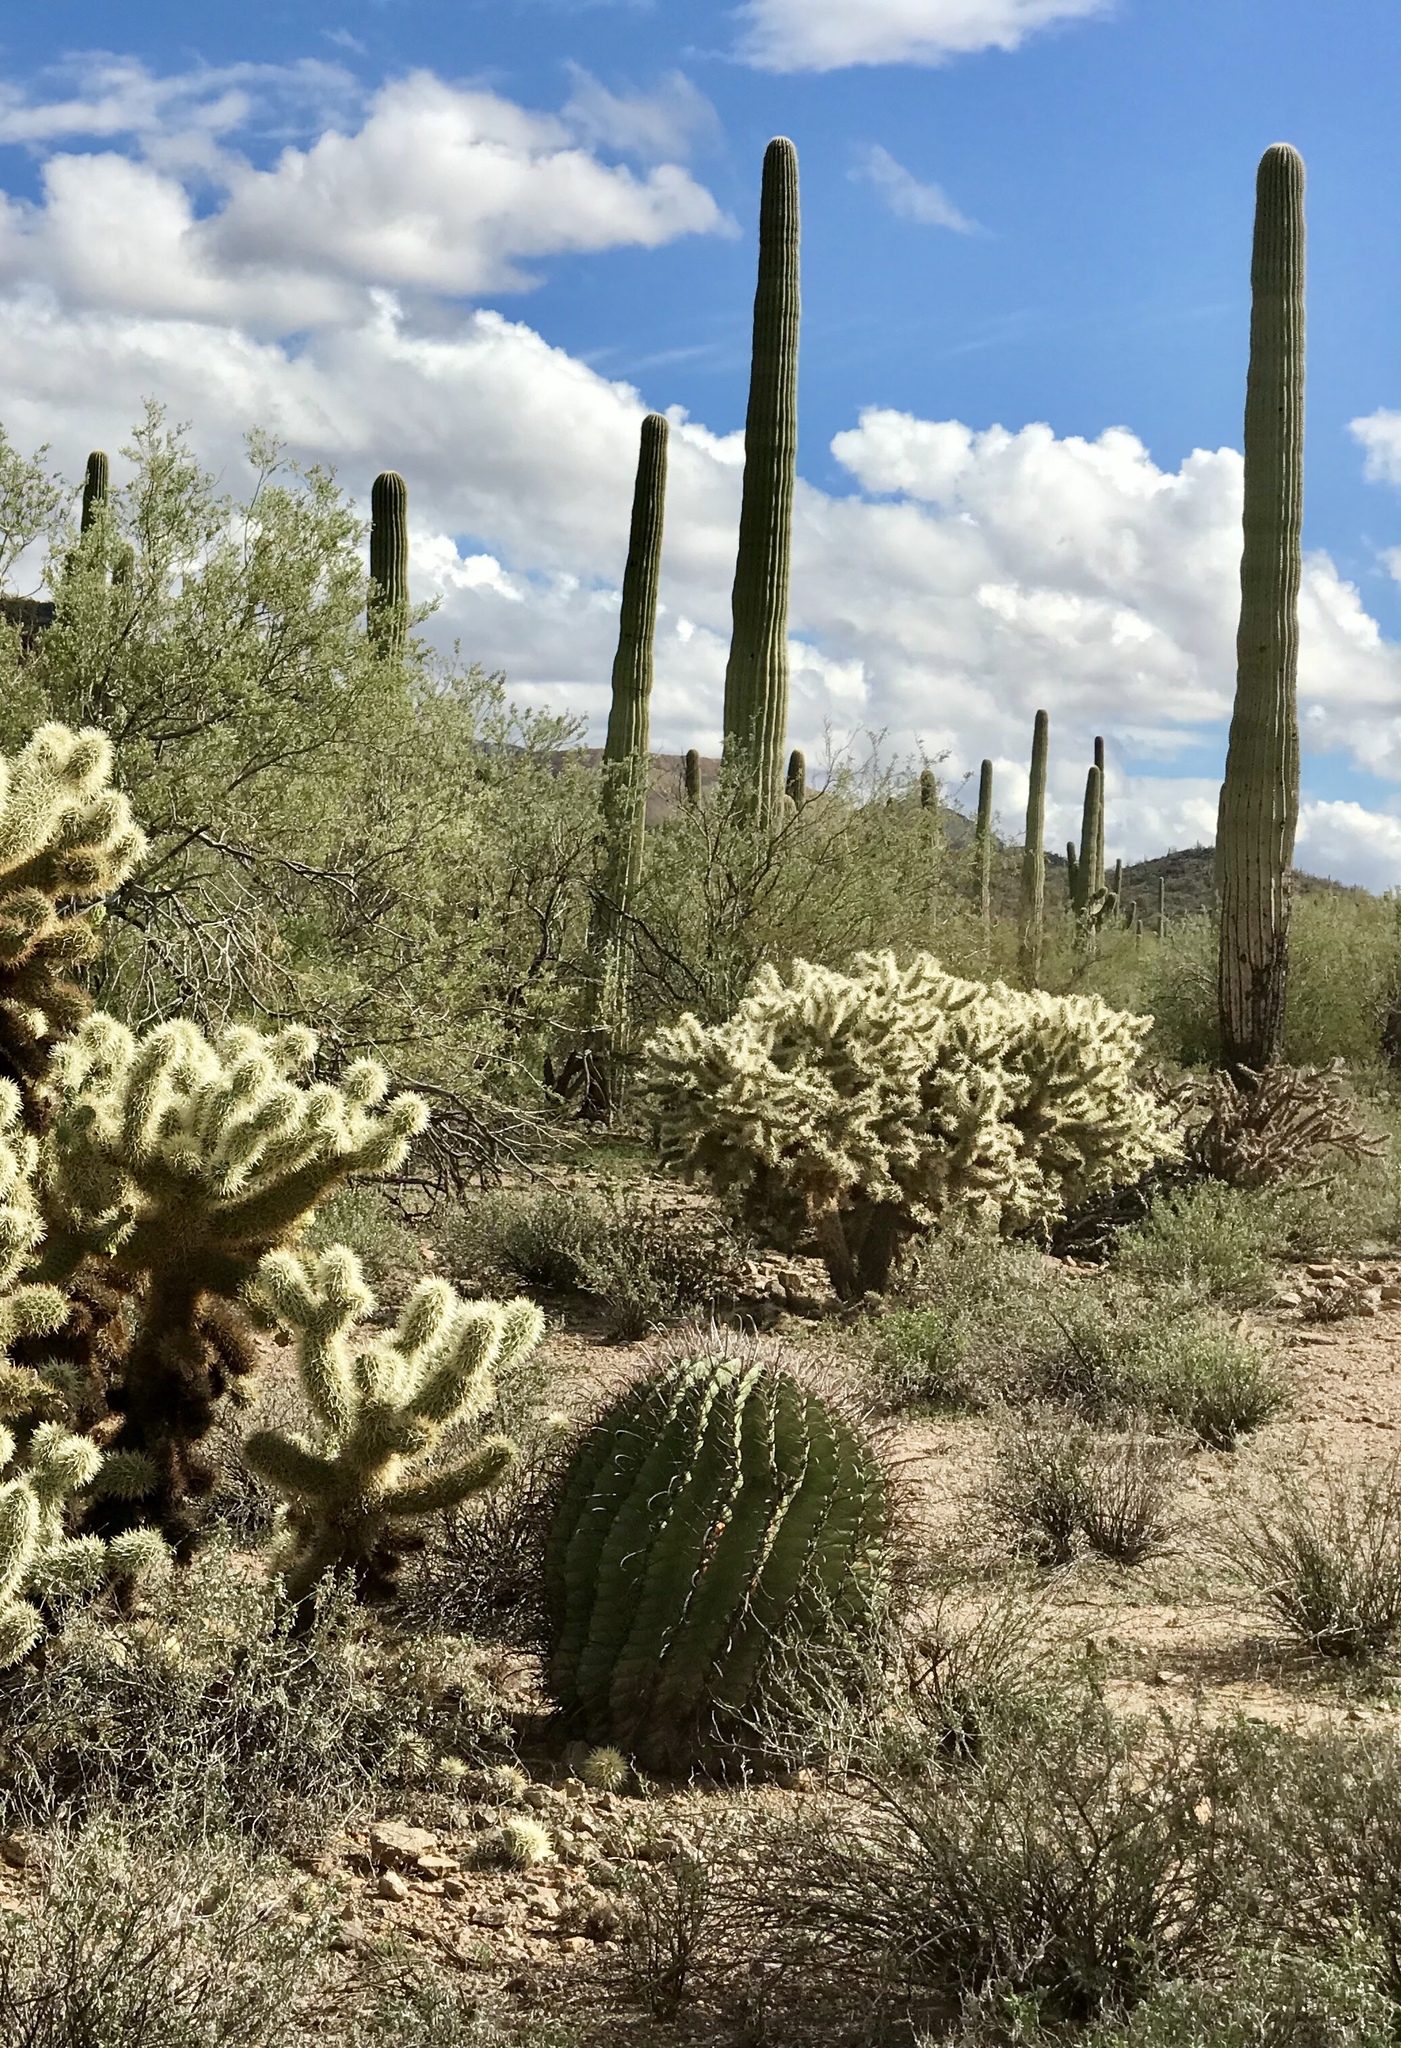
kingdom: Plantae
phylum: Tracheophyta
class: Magnoliopsida
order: Caryophyllales
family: Cactaceae
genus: Ferocactus
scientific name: Ferocactus wislizeni
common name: Candy barrel cactus
